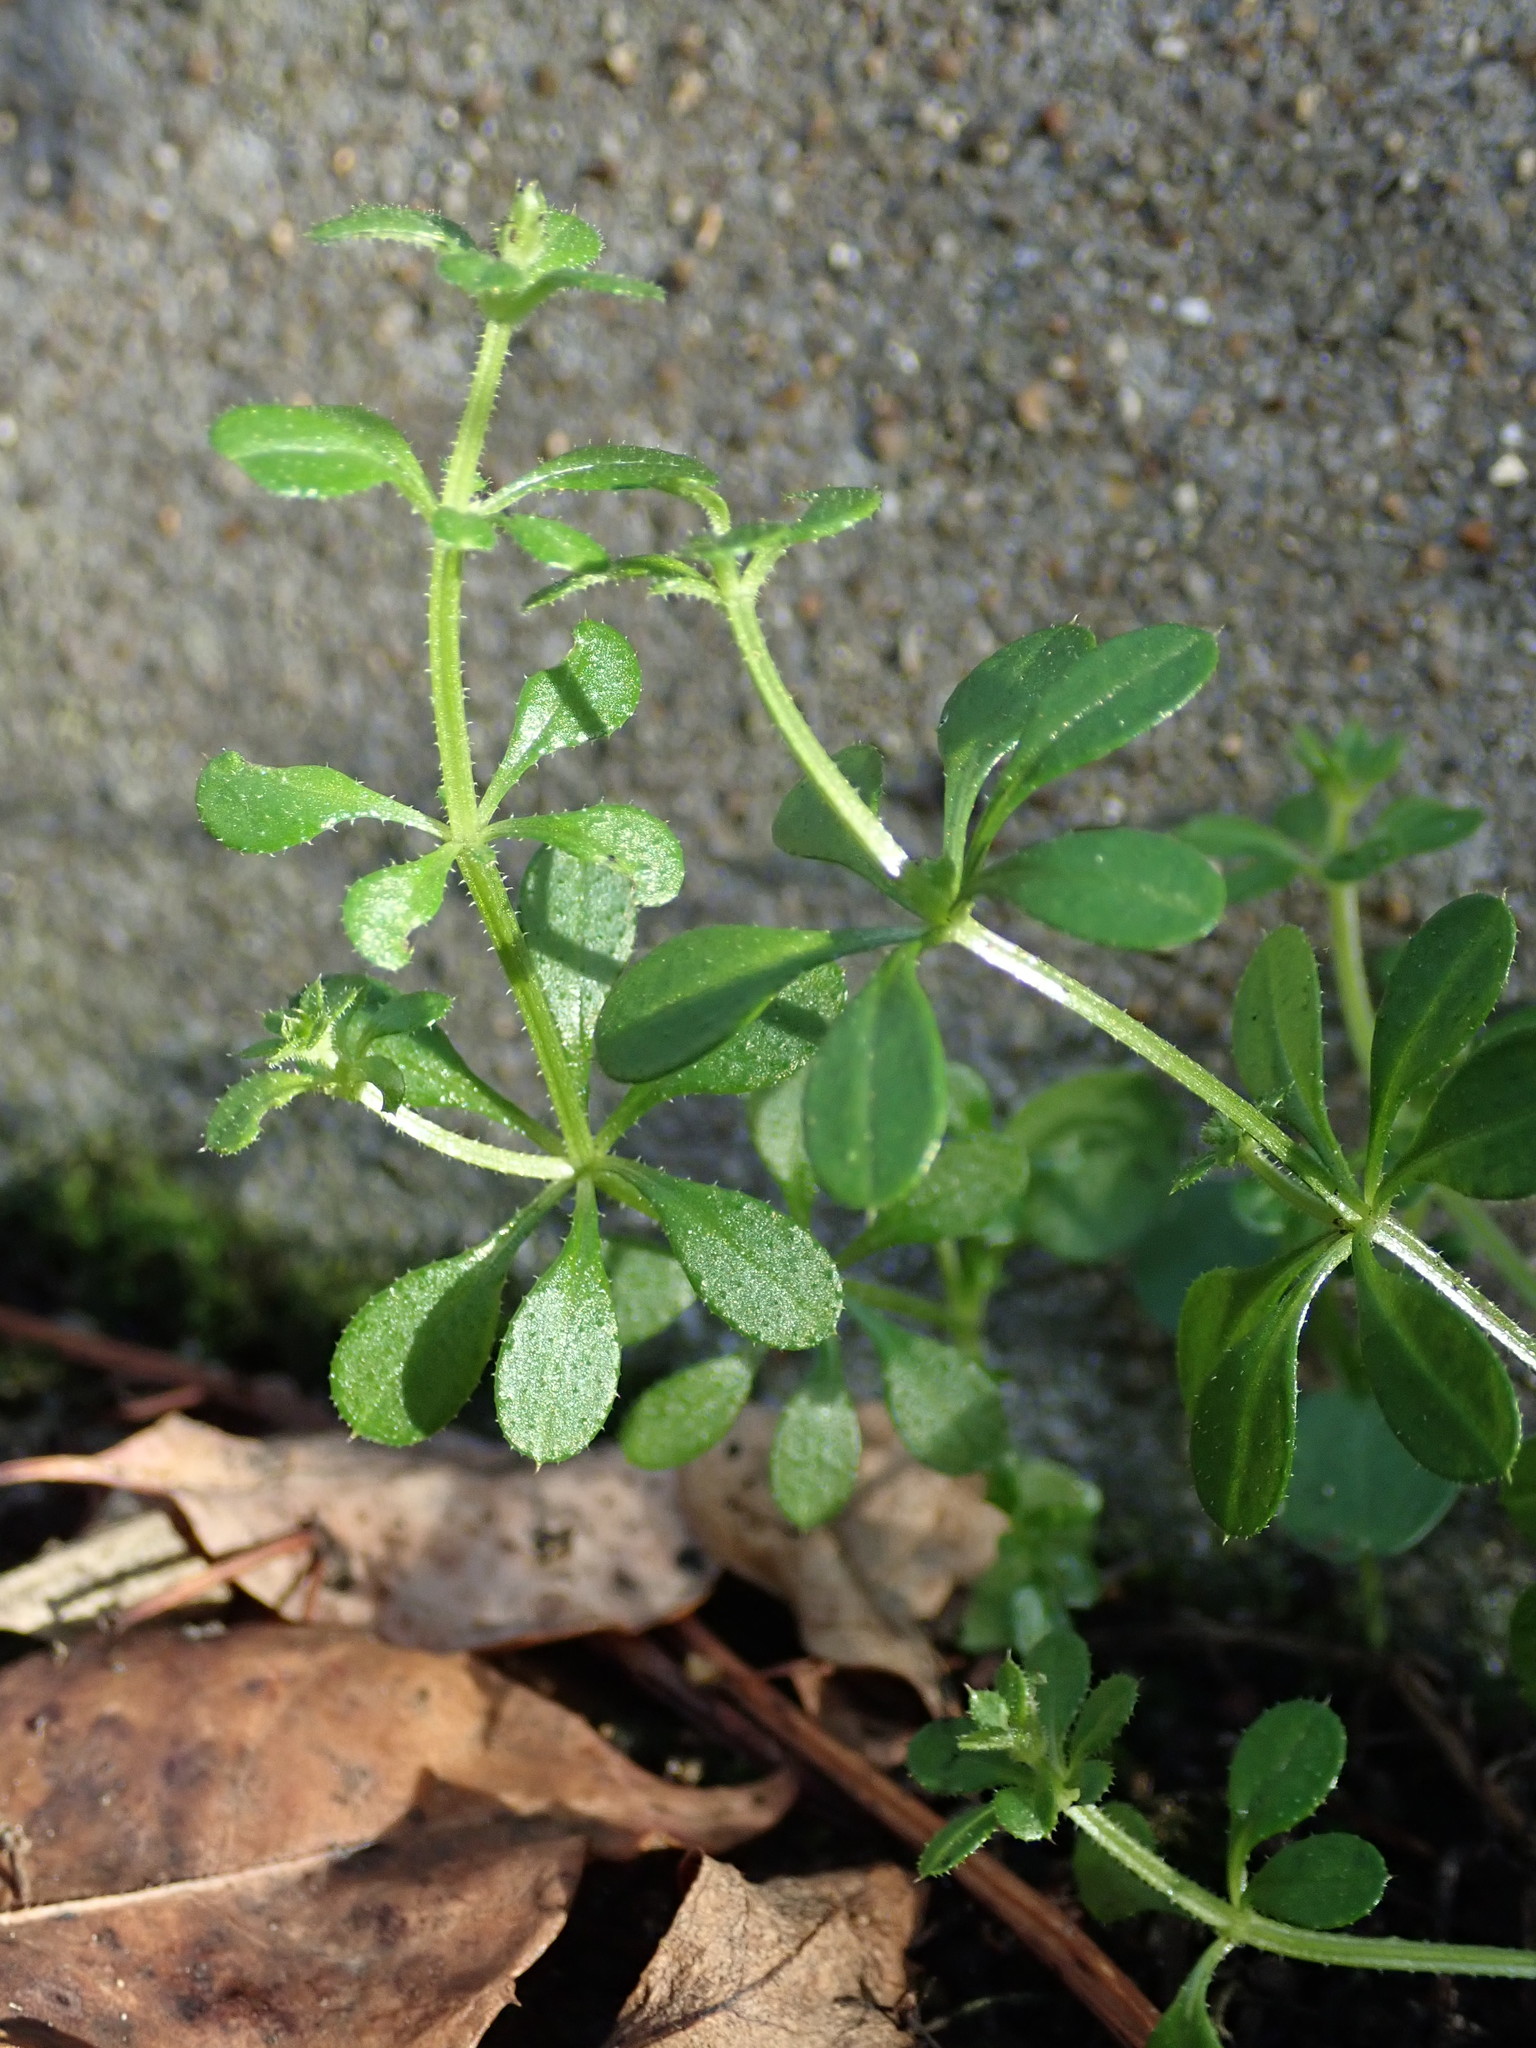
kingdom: Plantae
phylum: Tracheophyta
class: Magnoliopsida
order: Gentianales
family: Rubiaceae
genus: Galium
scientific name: Galium aparine
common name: Cleavers
